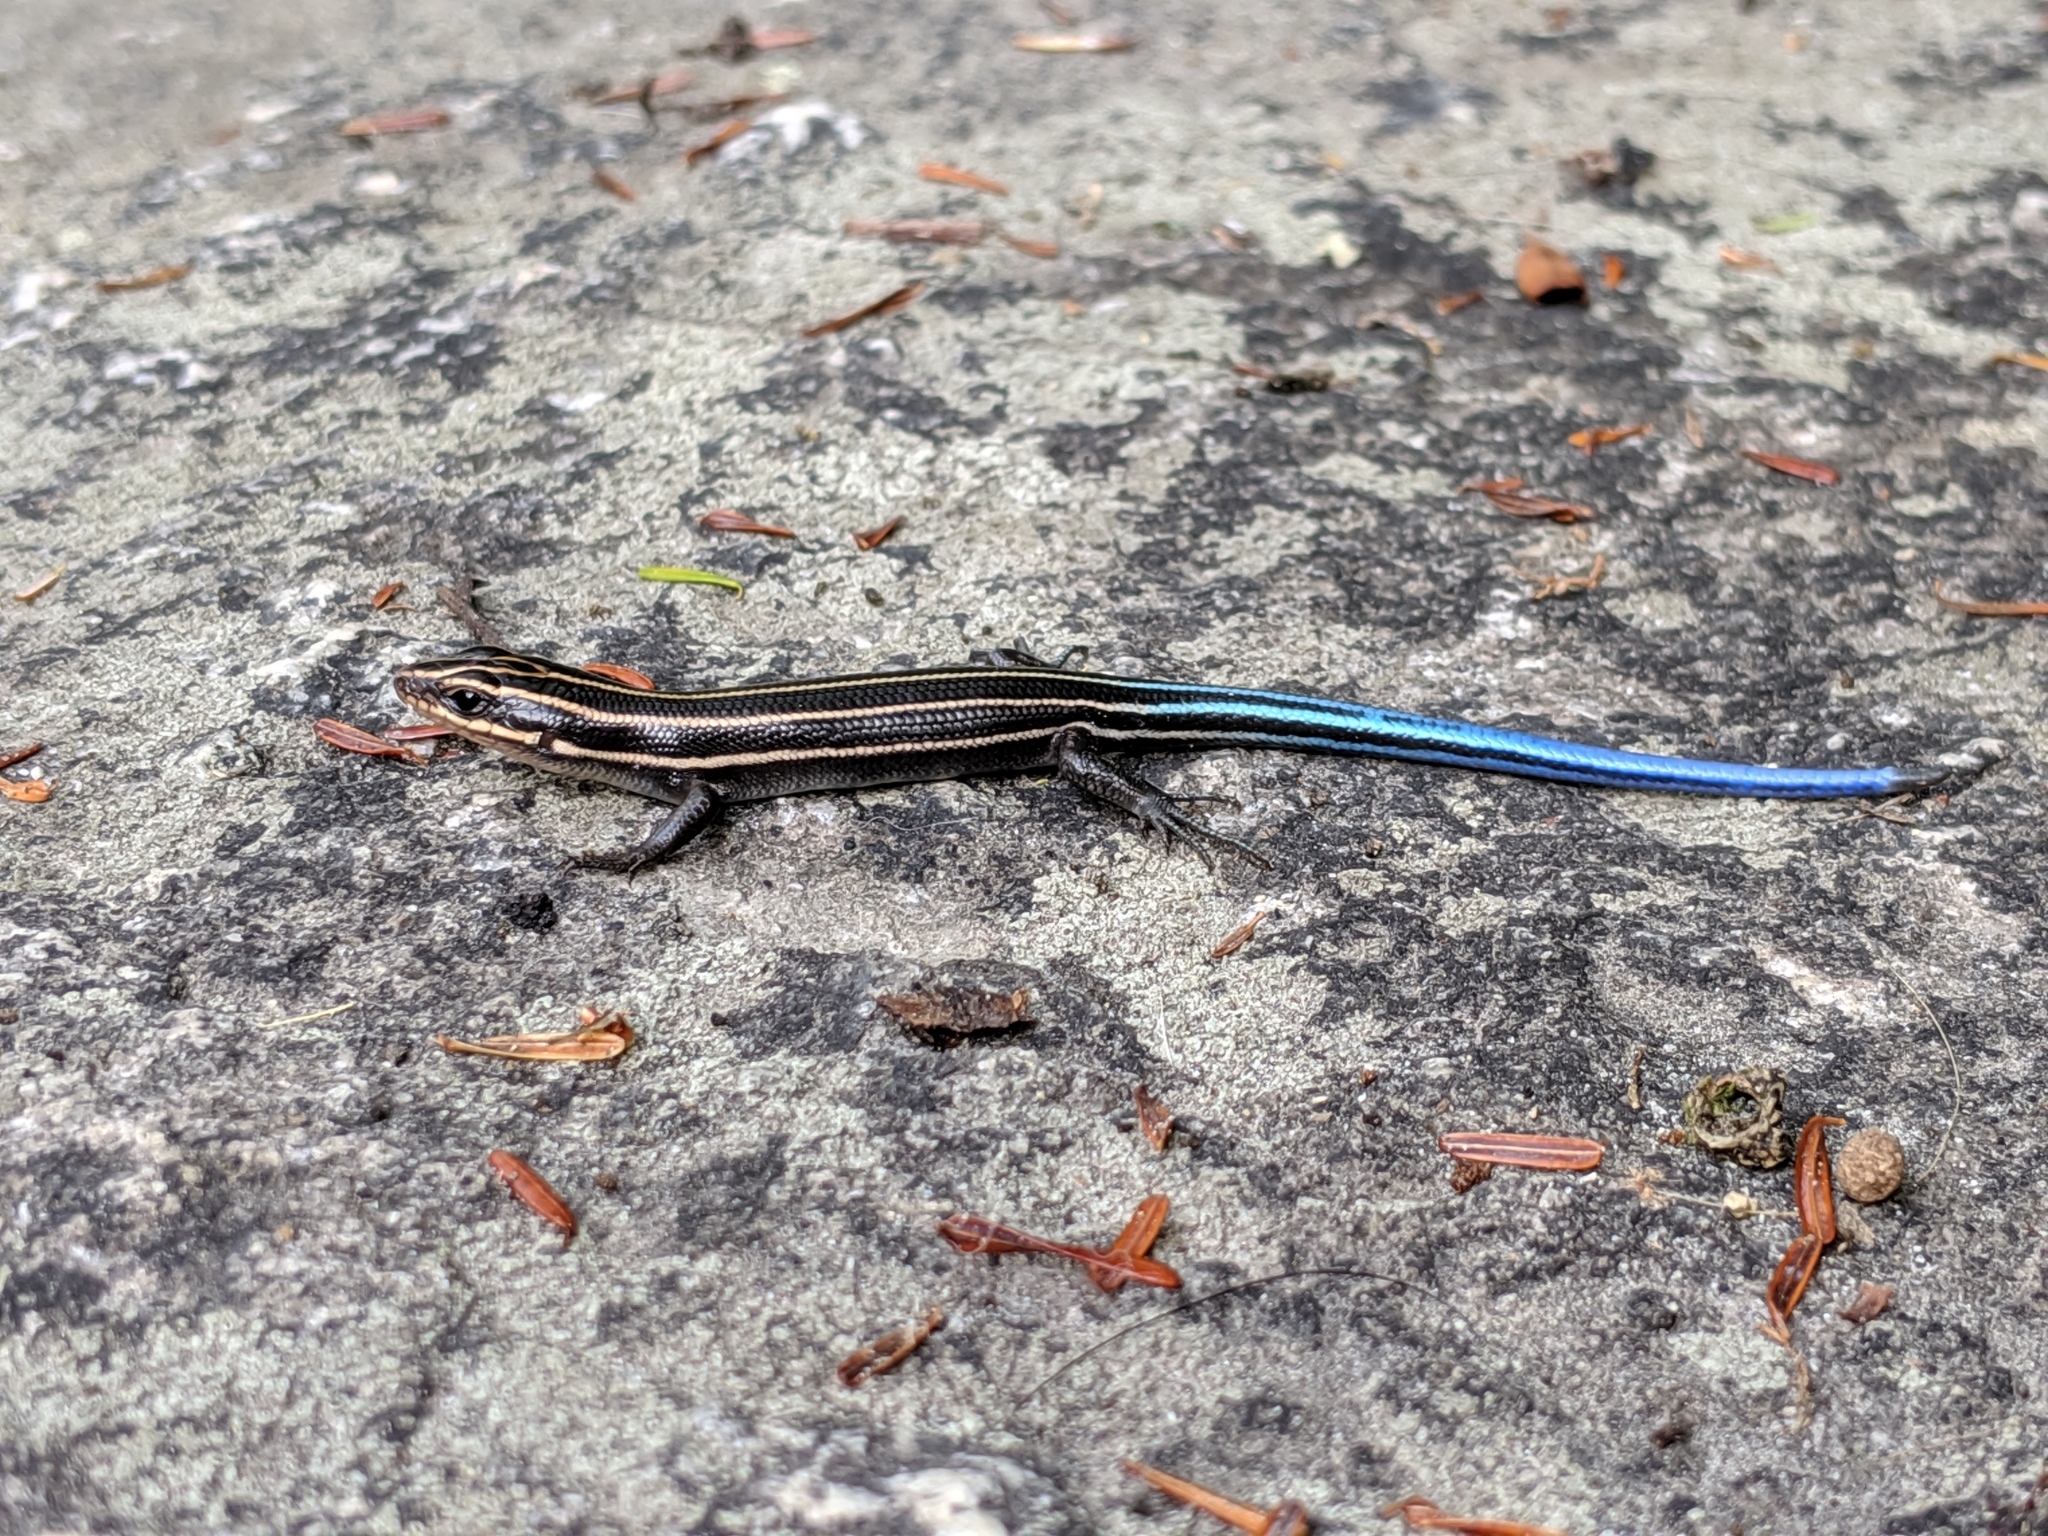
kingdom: Animalia
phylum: Chordata
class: Squamata
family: Scincidae
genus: Plestiodon
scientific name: Plestiodon fasciatus
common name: Five-lined skink
